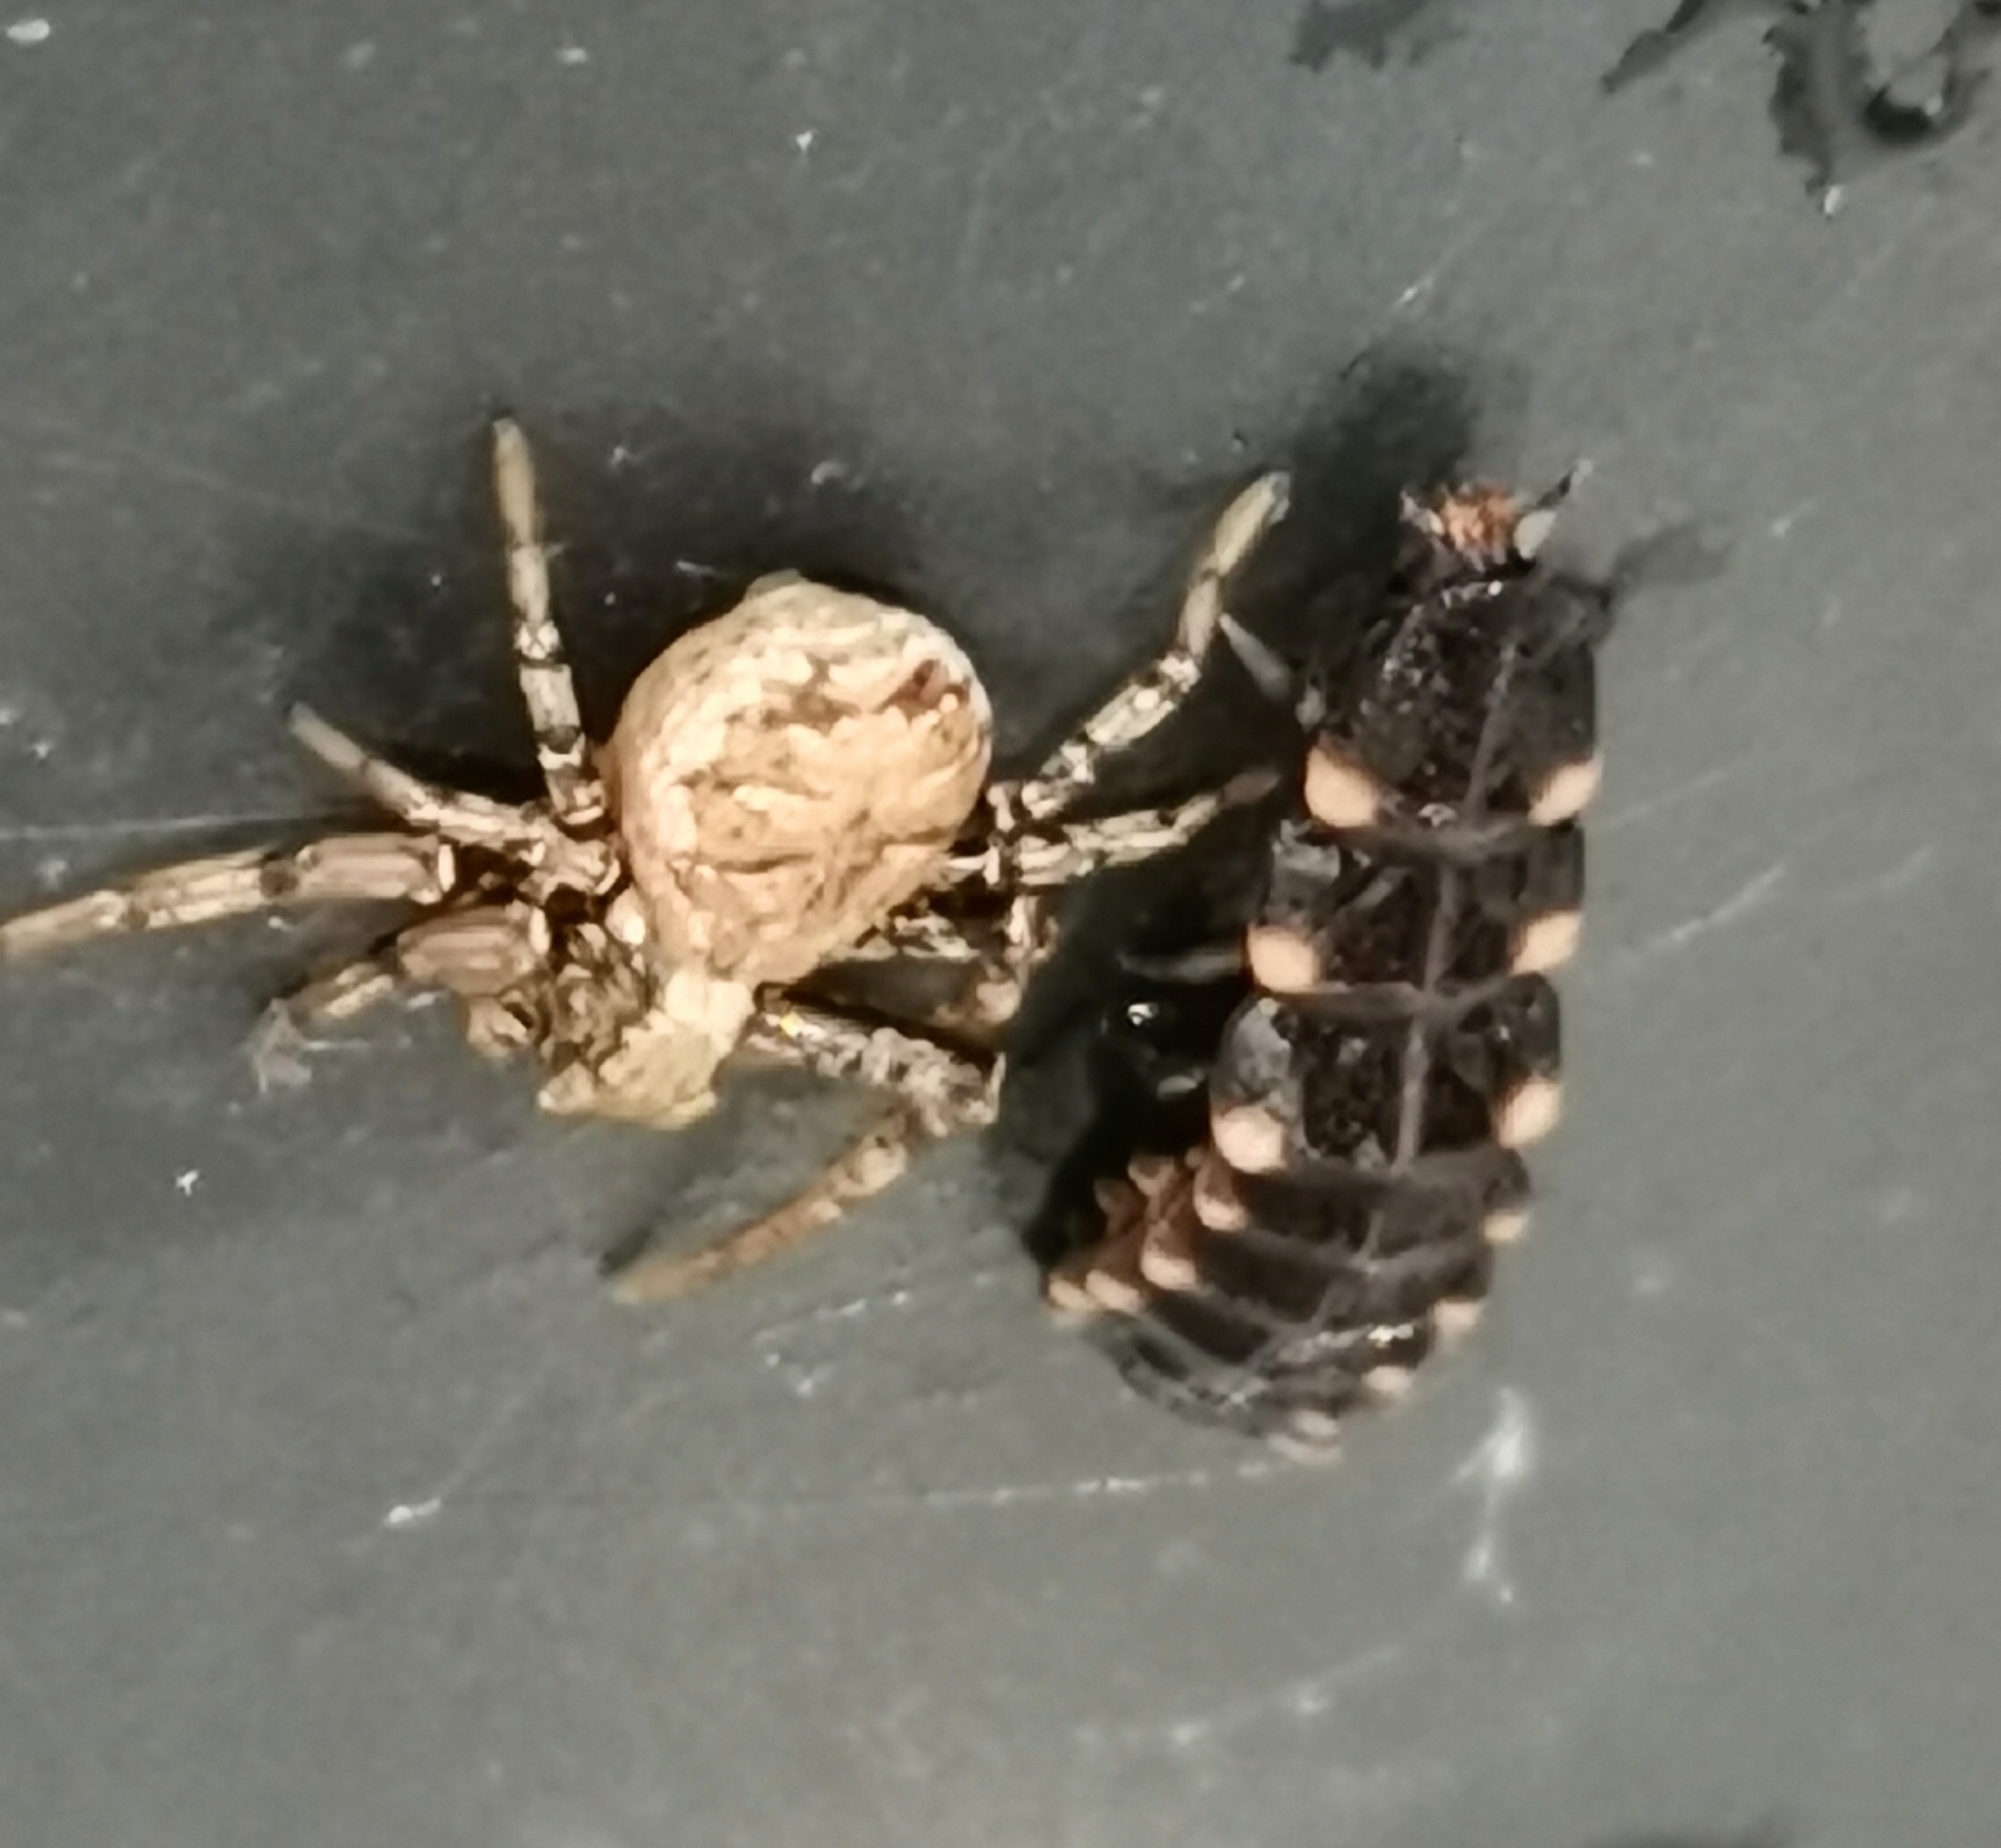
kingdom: Animalia
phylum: Arthropoda
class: Insecta
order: Coleoptera
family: Lampyridae
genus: Lampyris
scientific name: Lampyris noctiluca
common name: Glow-worm
